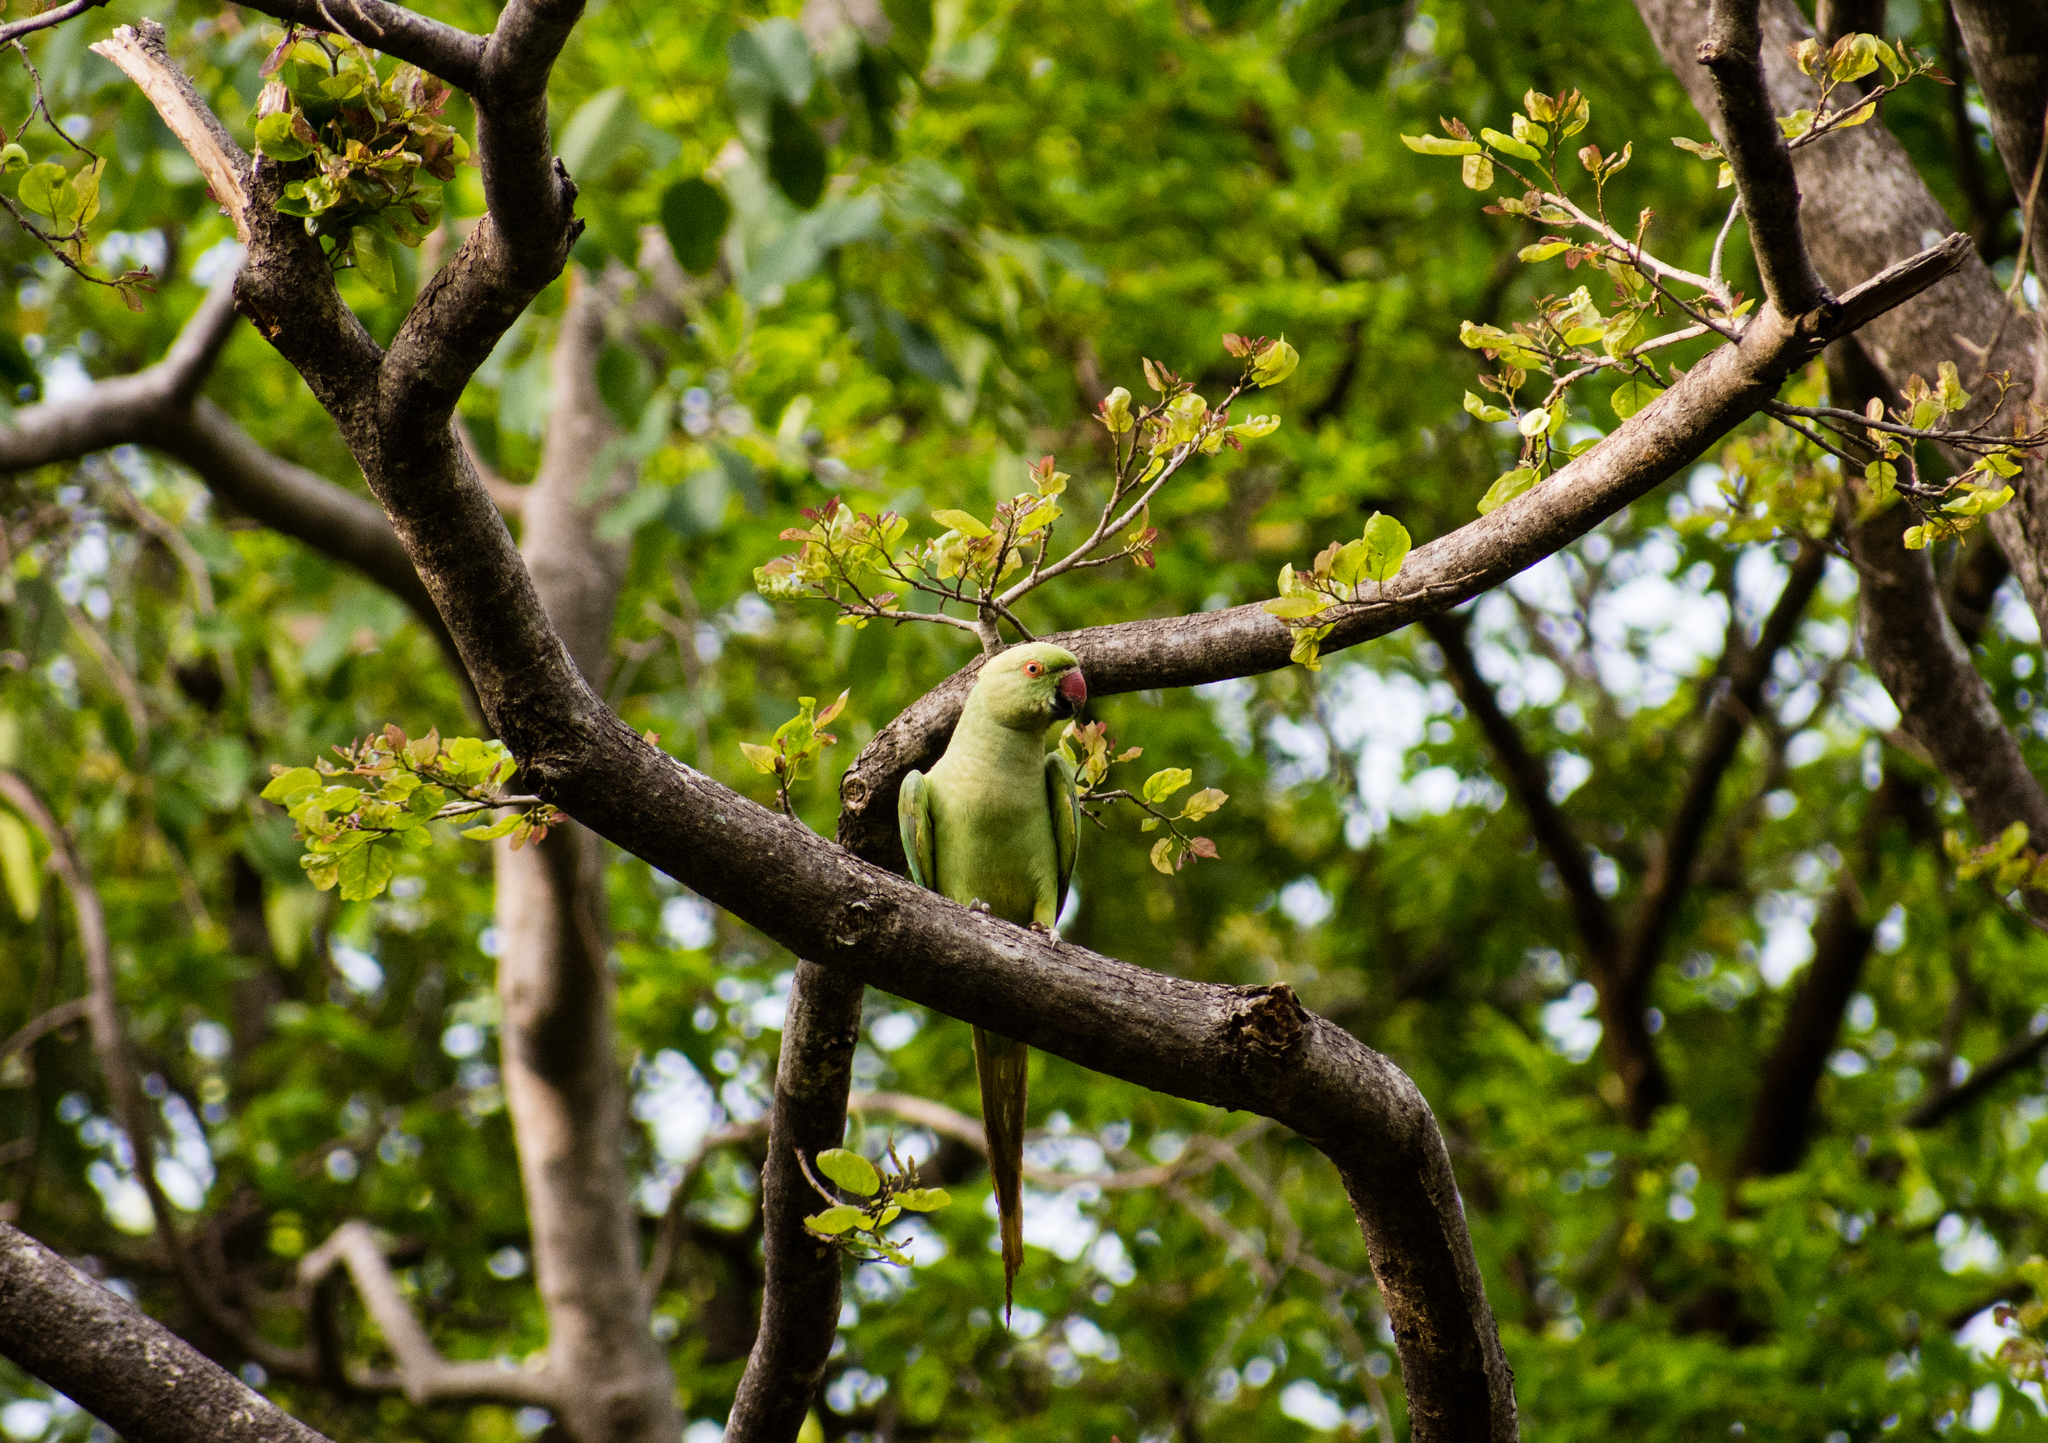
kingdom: Animalia
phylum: Chordata
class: Aves
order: Psittaciformes
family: Psittacidae
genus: Psittacula
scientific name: Psittacula krameri
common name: Rose-ringed parakeet
